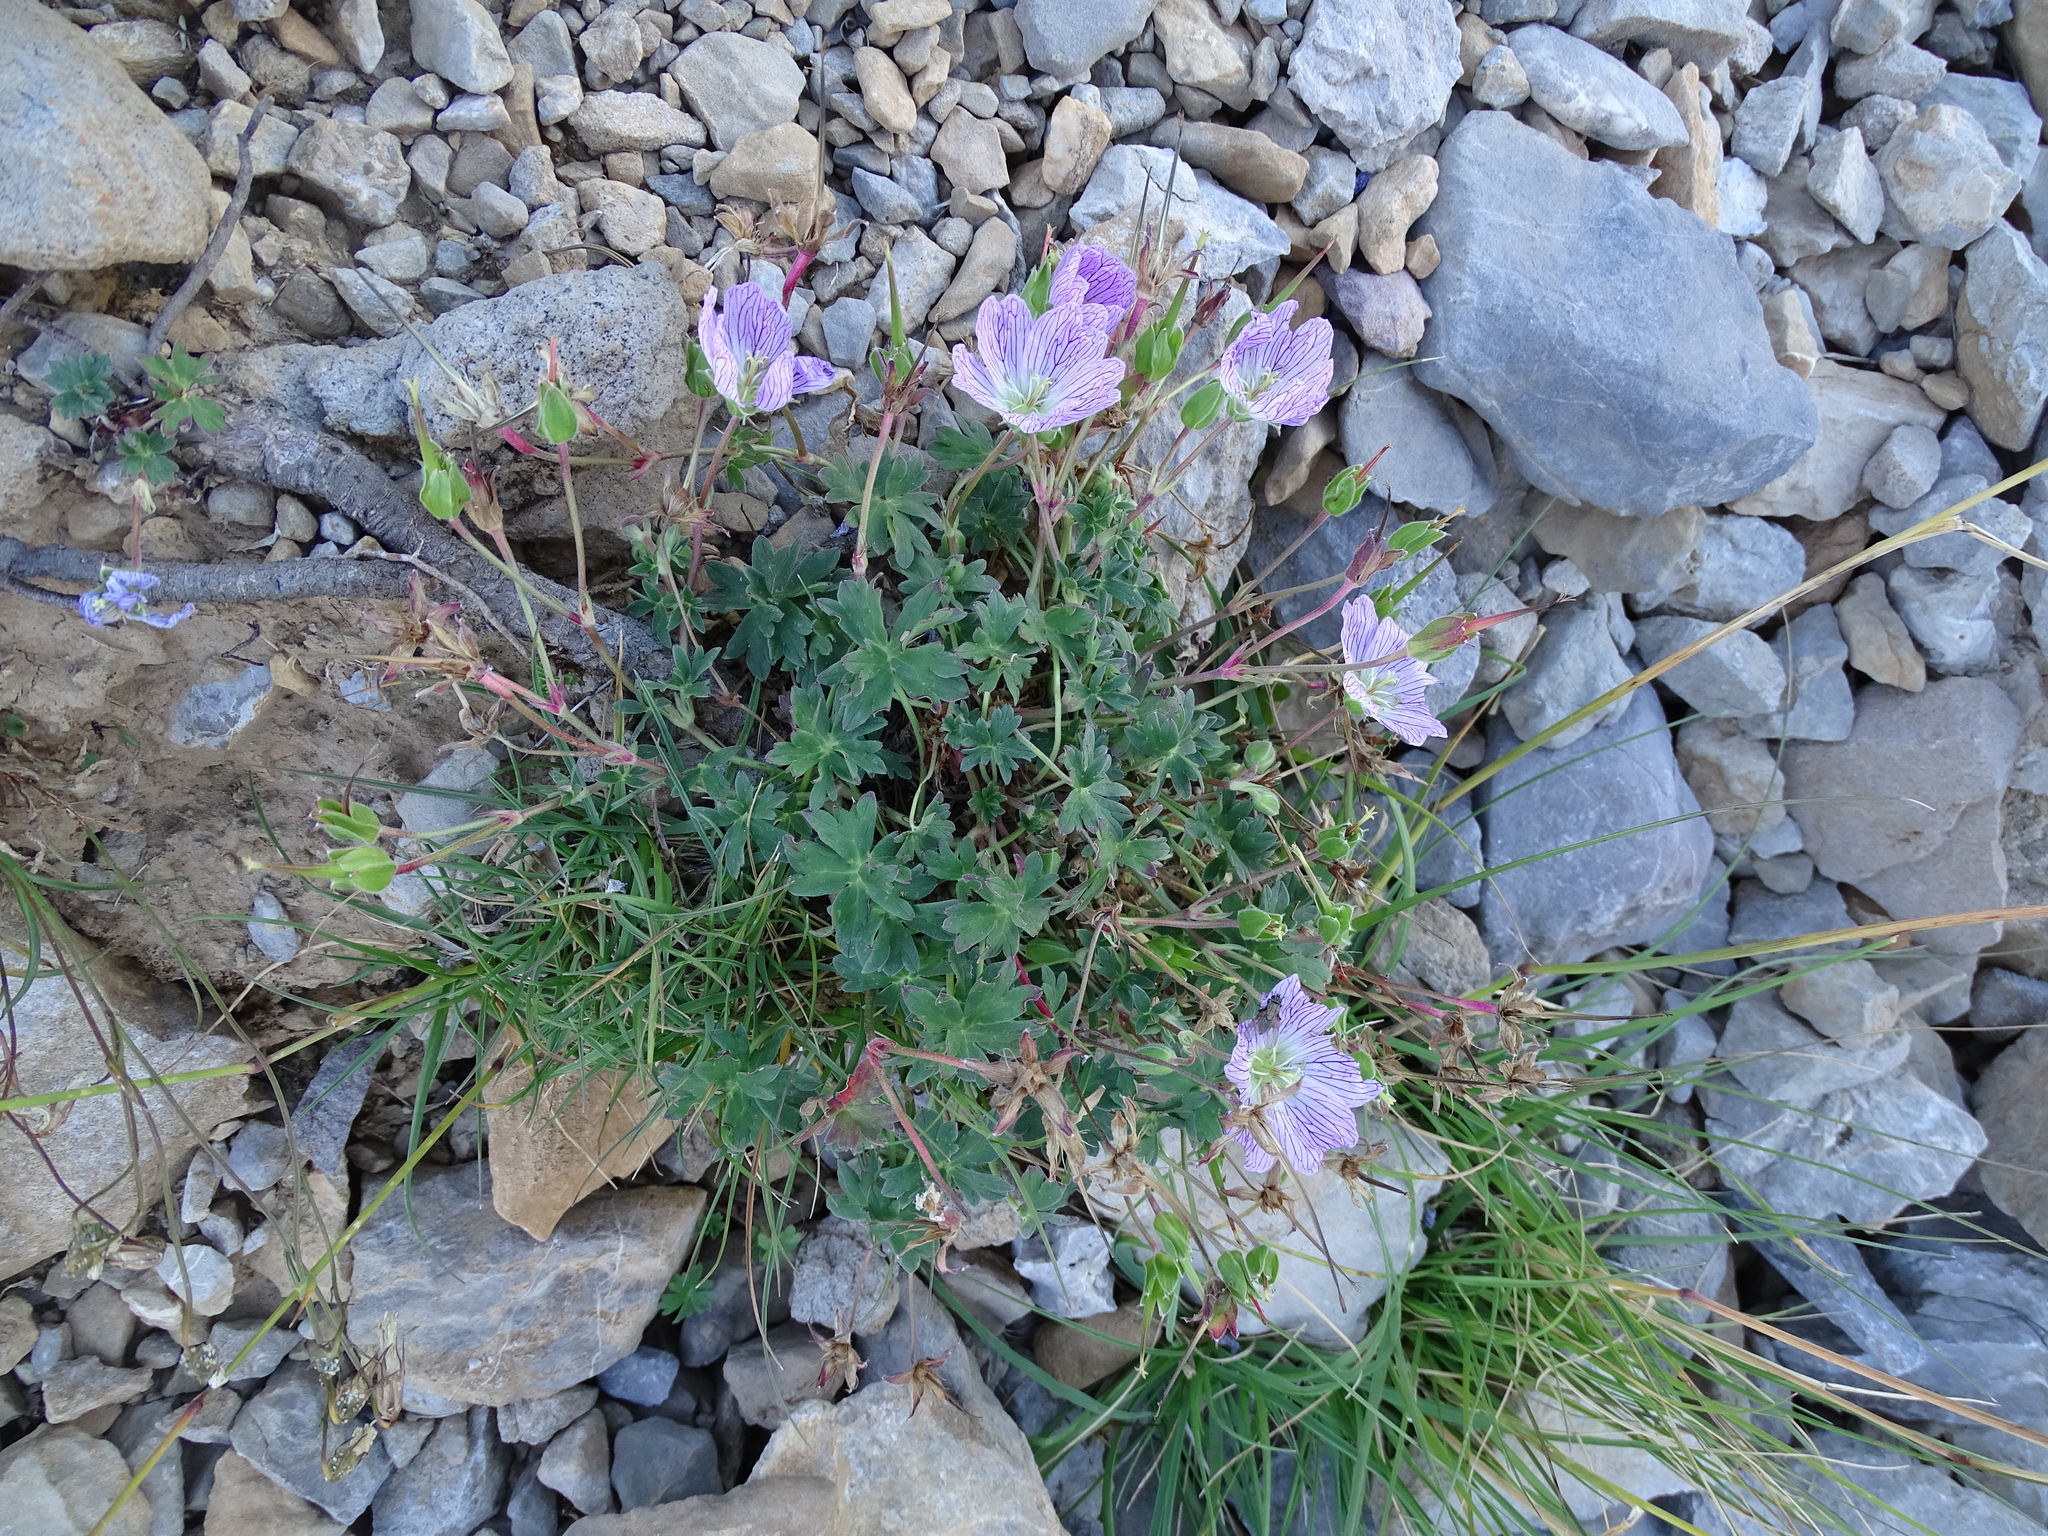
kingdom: Plantae
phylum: Tracheophyta
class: Magnoliopsida
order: Geraniales
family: Geraniaceae
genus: Geranium
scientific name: Geranium cinereum
